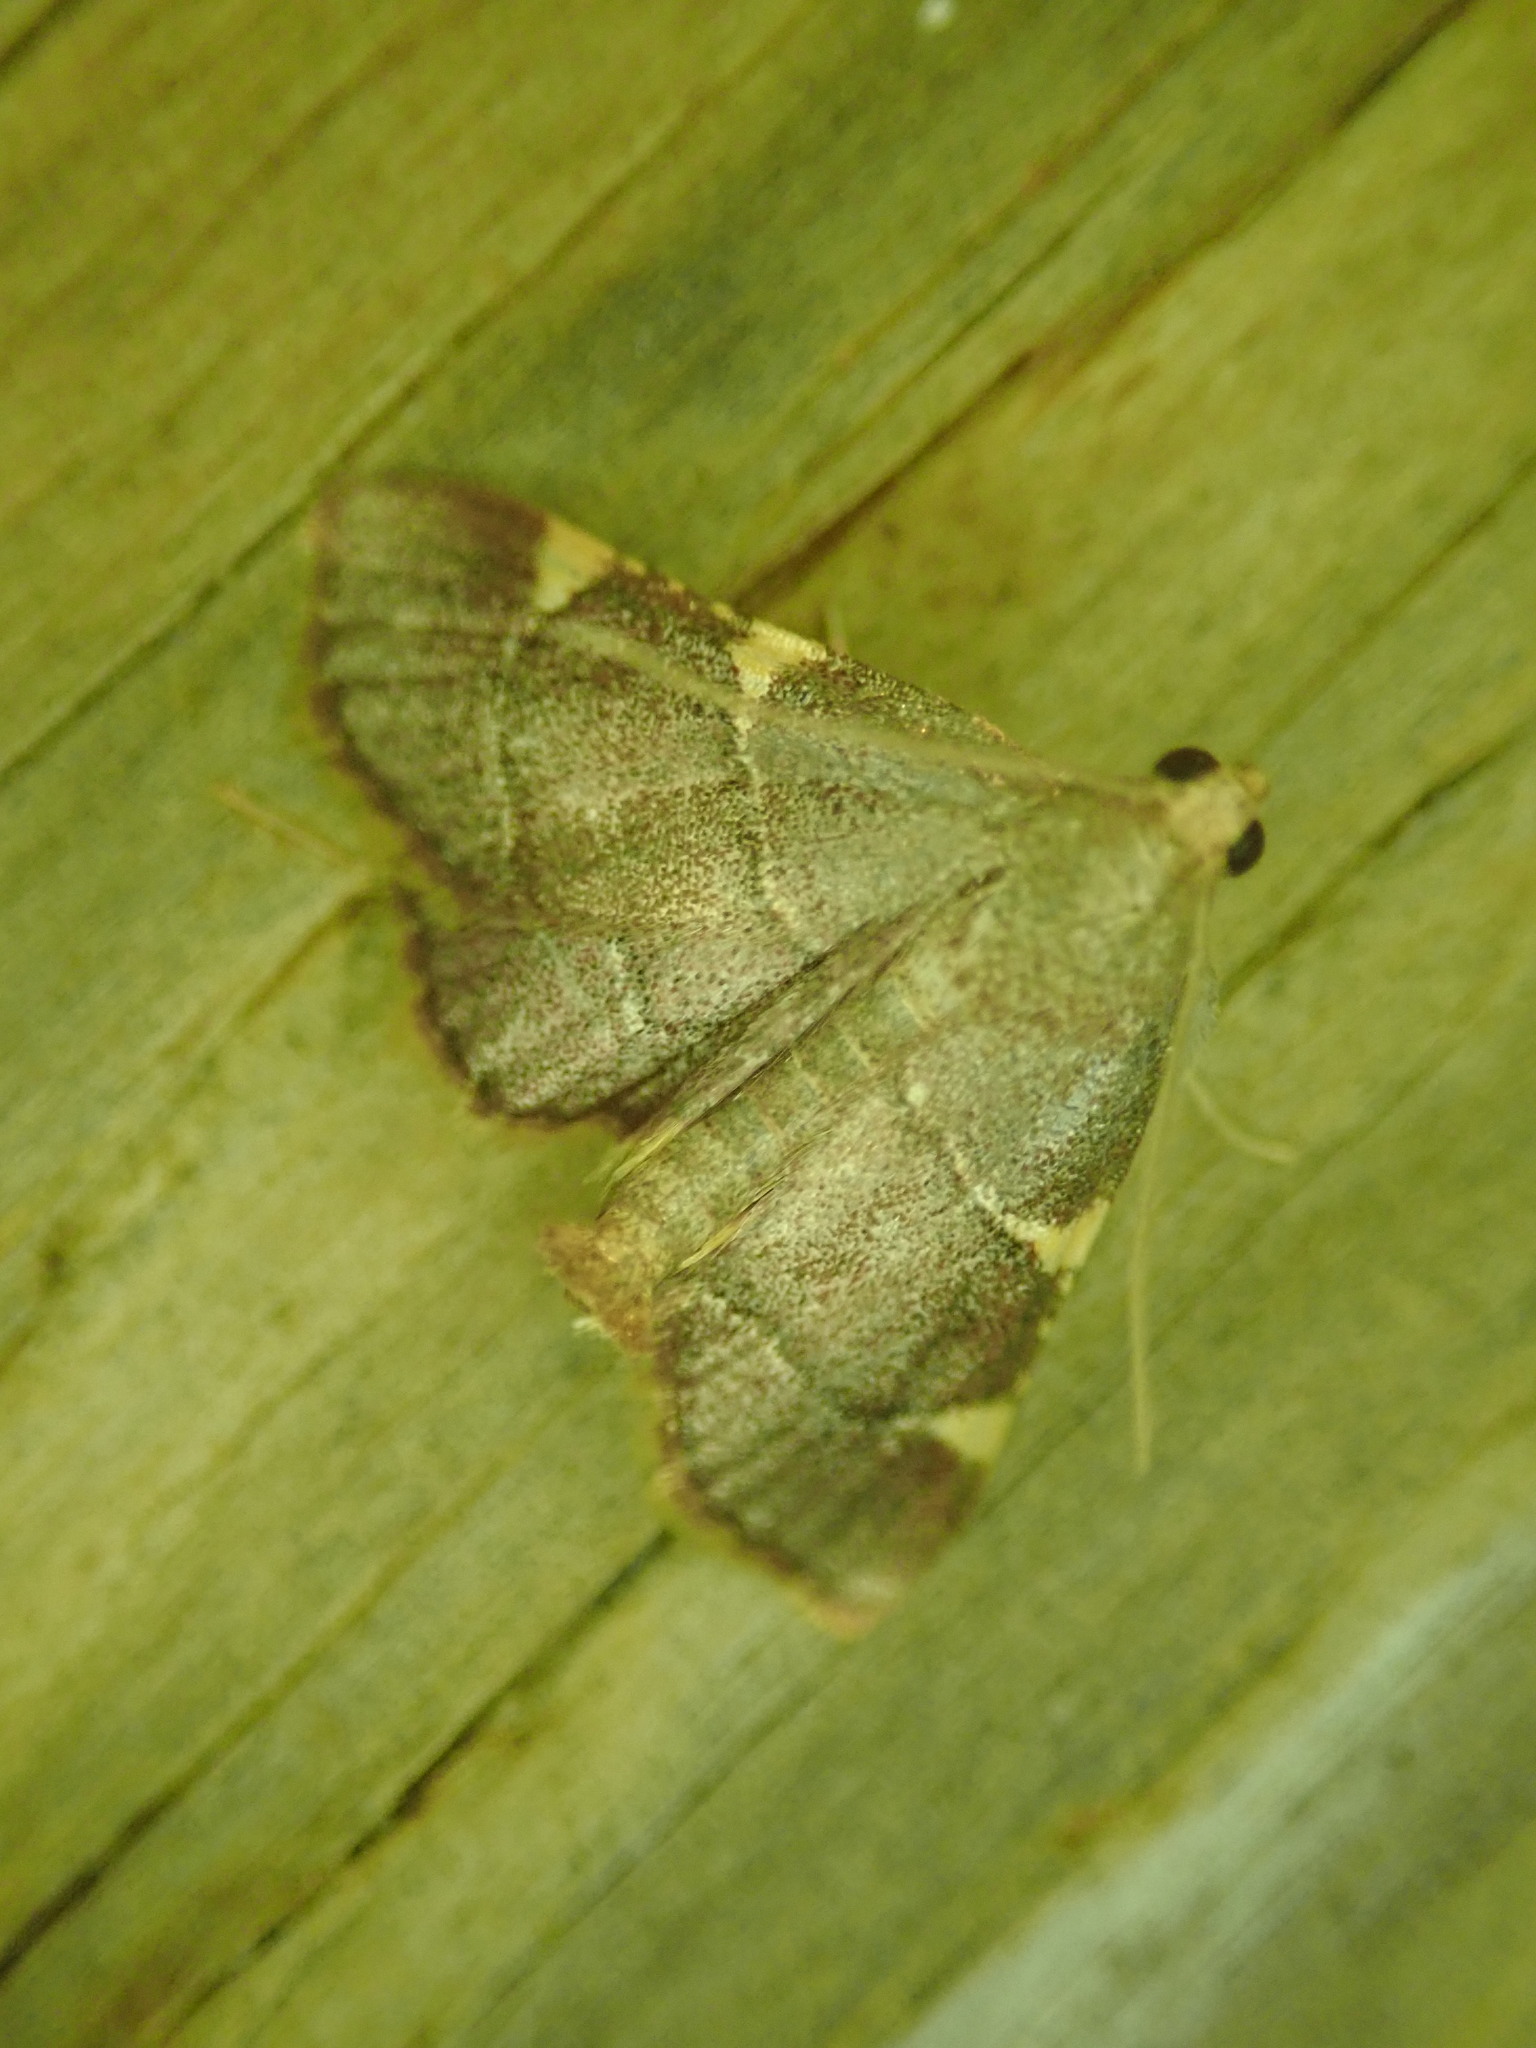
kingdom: Animalia
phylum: Arthropoda
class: Insecta
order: Lepidoptera
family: Pyralidae
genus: Hypsopygia
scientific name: Hypsopygia olinalis
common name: Yellow-fringed dolichomia moth
